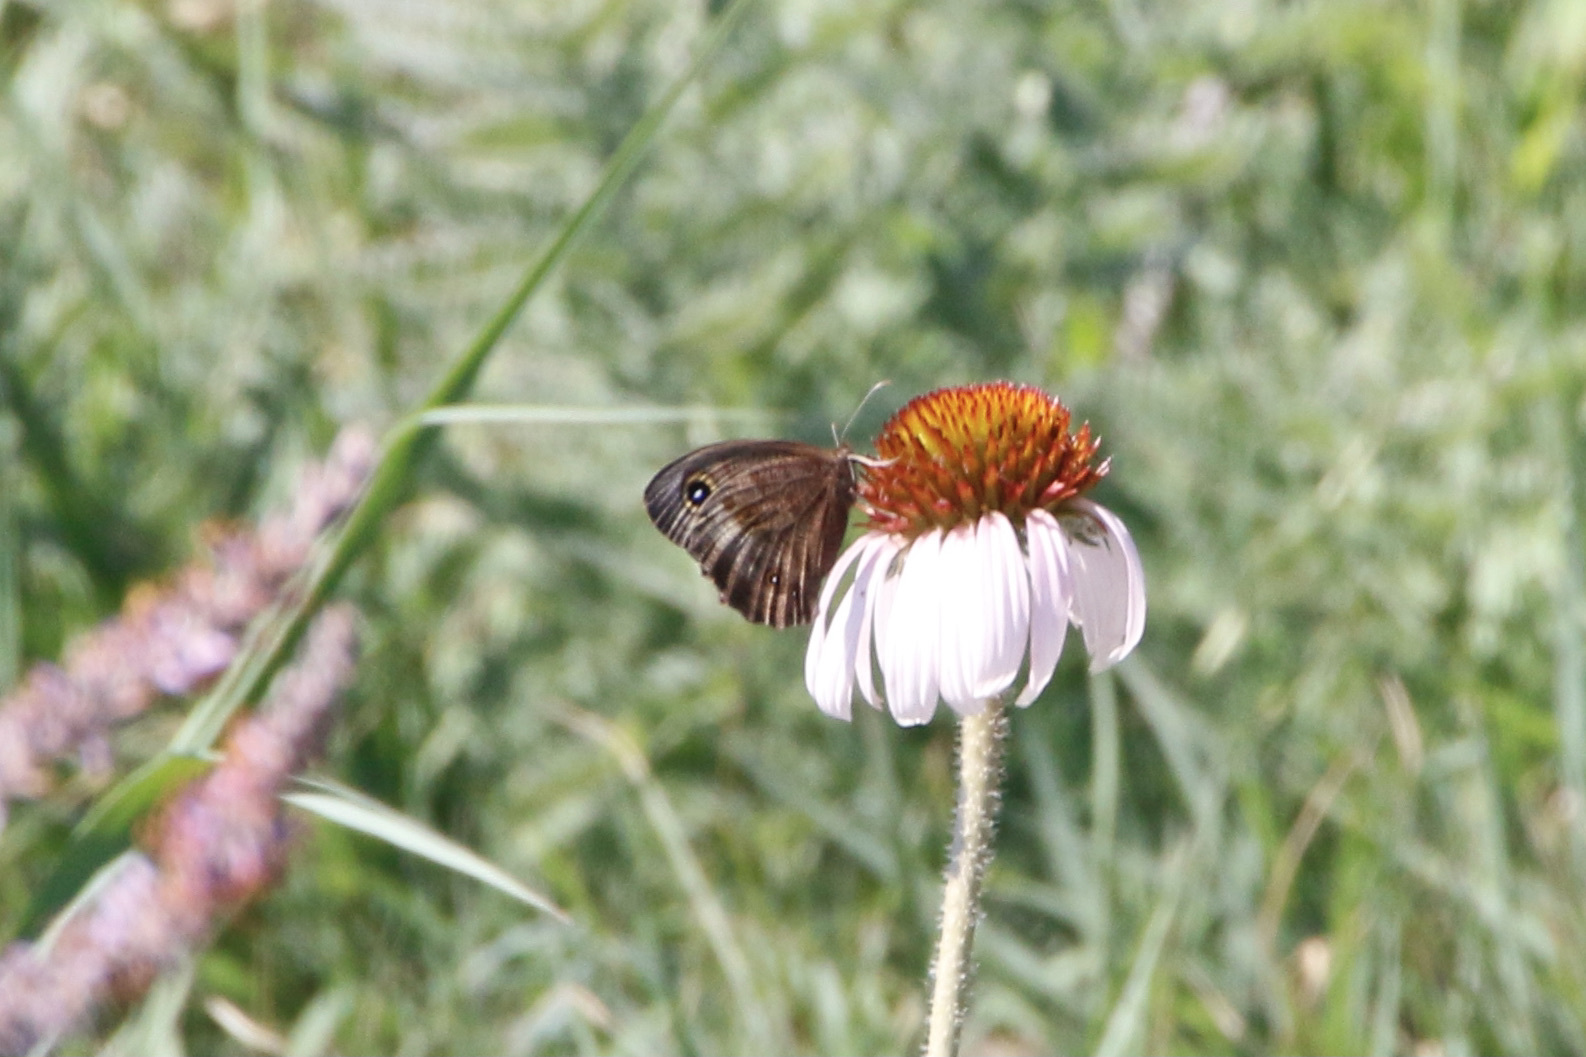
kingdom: Animalia
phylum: Arthropoda
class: Insecta
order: Lepidoptera
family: Nymphalidae
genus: Cercyonis
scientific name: Cercyonis pegala
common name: Common wood-nymph
